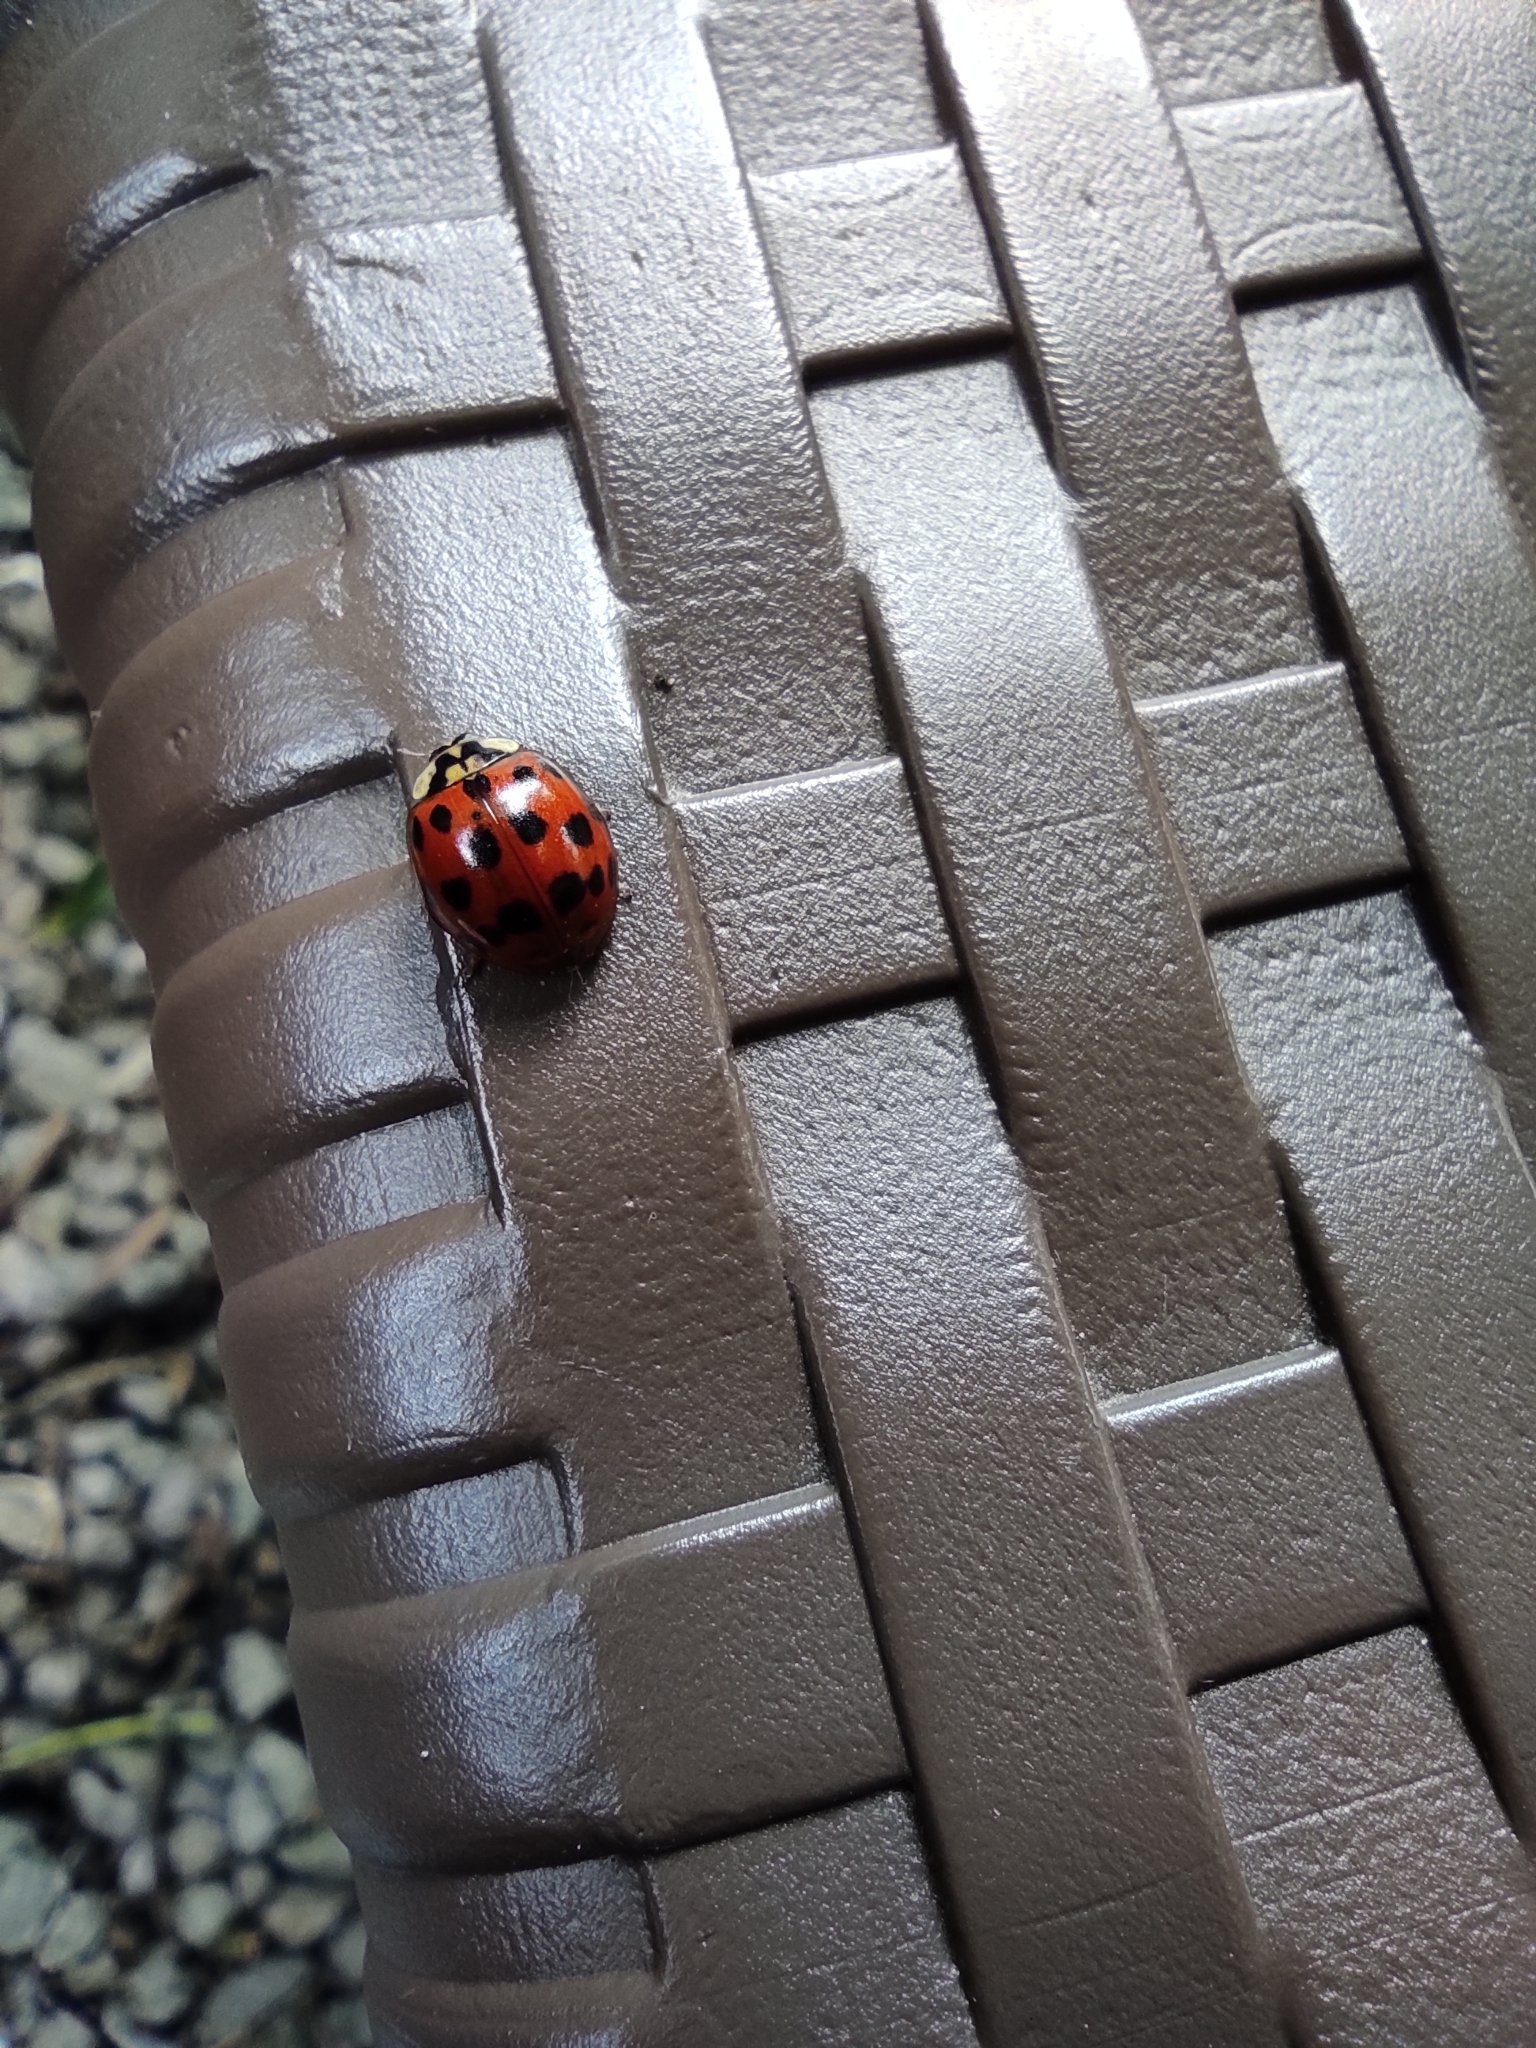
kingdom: Animalia
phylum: Arthropoda
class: Insecta
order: Coleoptera
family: Coccinellidae
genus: Harmonia
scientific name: Harmonia axyridis
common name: Harlequin ladybird
